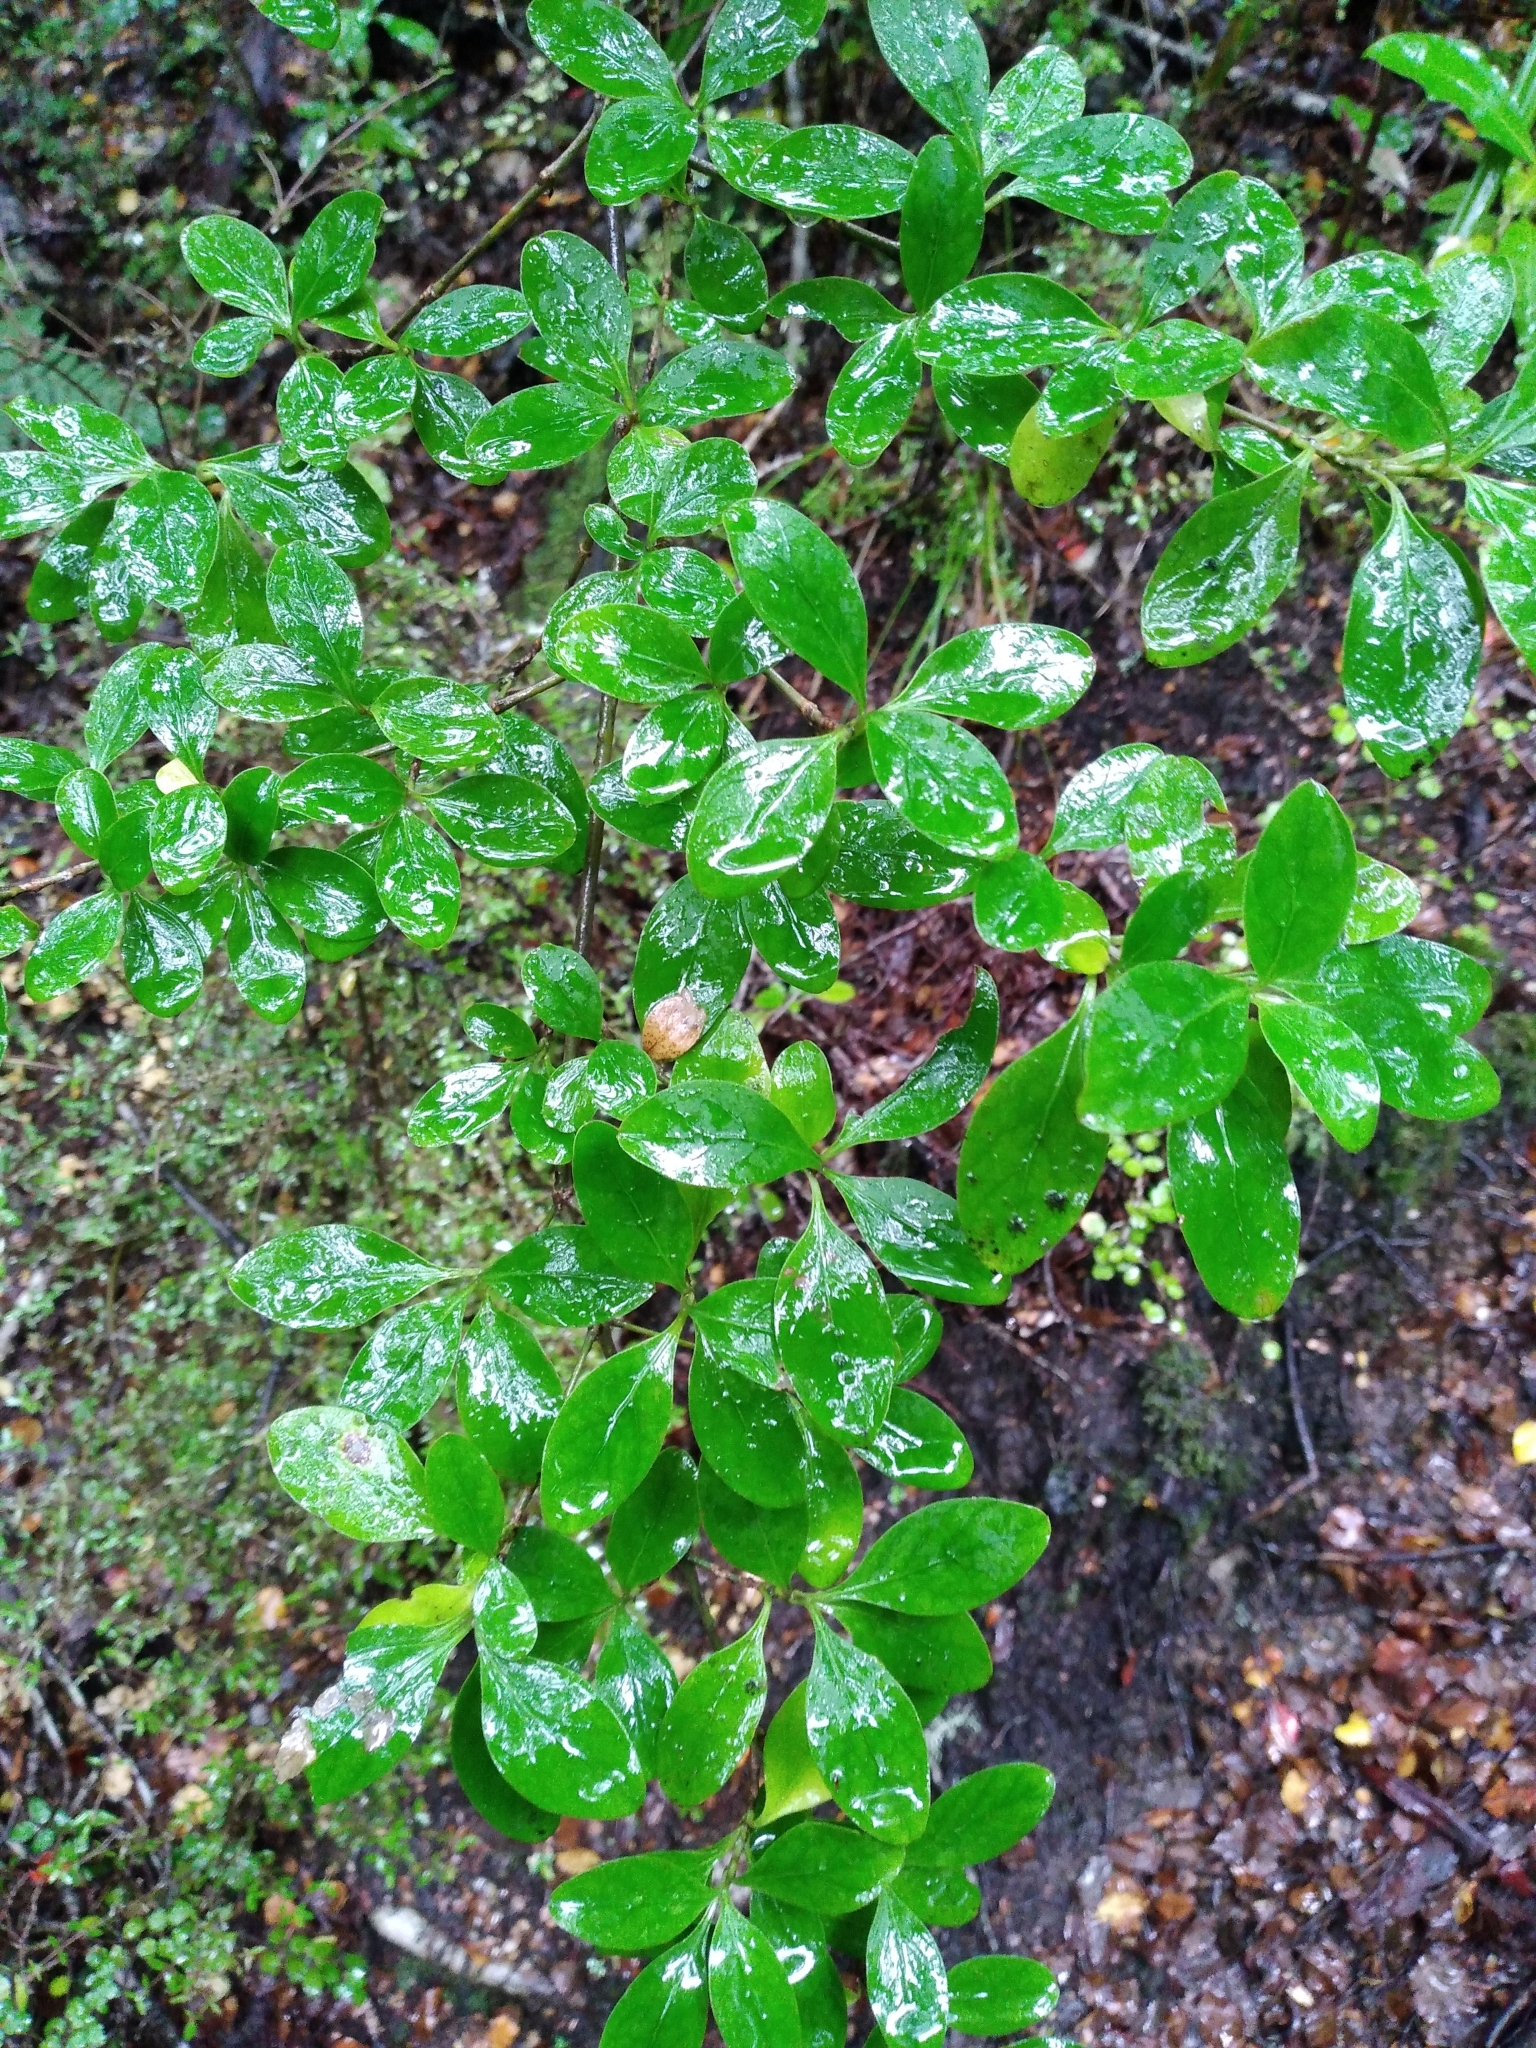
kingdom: Plantae
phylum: Tracheophyta
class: Magnoliopsida
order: Gentianales
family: Rubiaceae
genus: Coprosma
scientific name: Coprosma foetidissima
